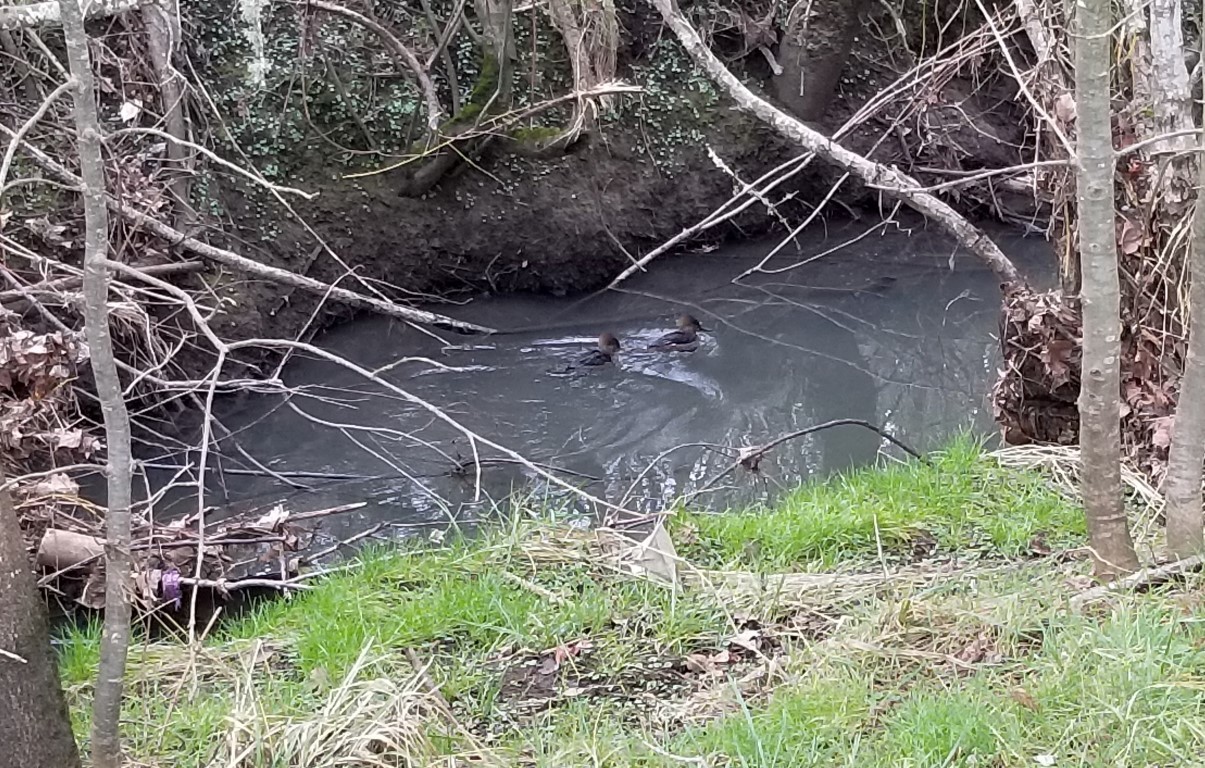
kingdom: Animalia
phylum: Chordata
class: Aves
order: Anseriformes
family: Anatidae
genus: Lophodytes
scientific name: Lophodytes cucullatus
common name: Hooded merganser
